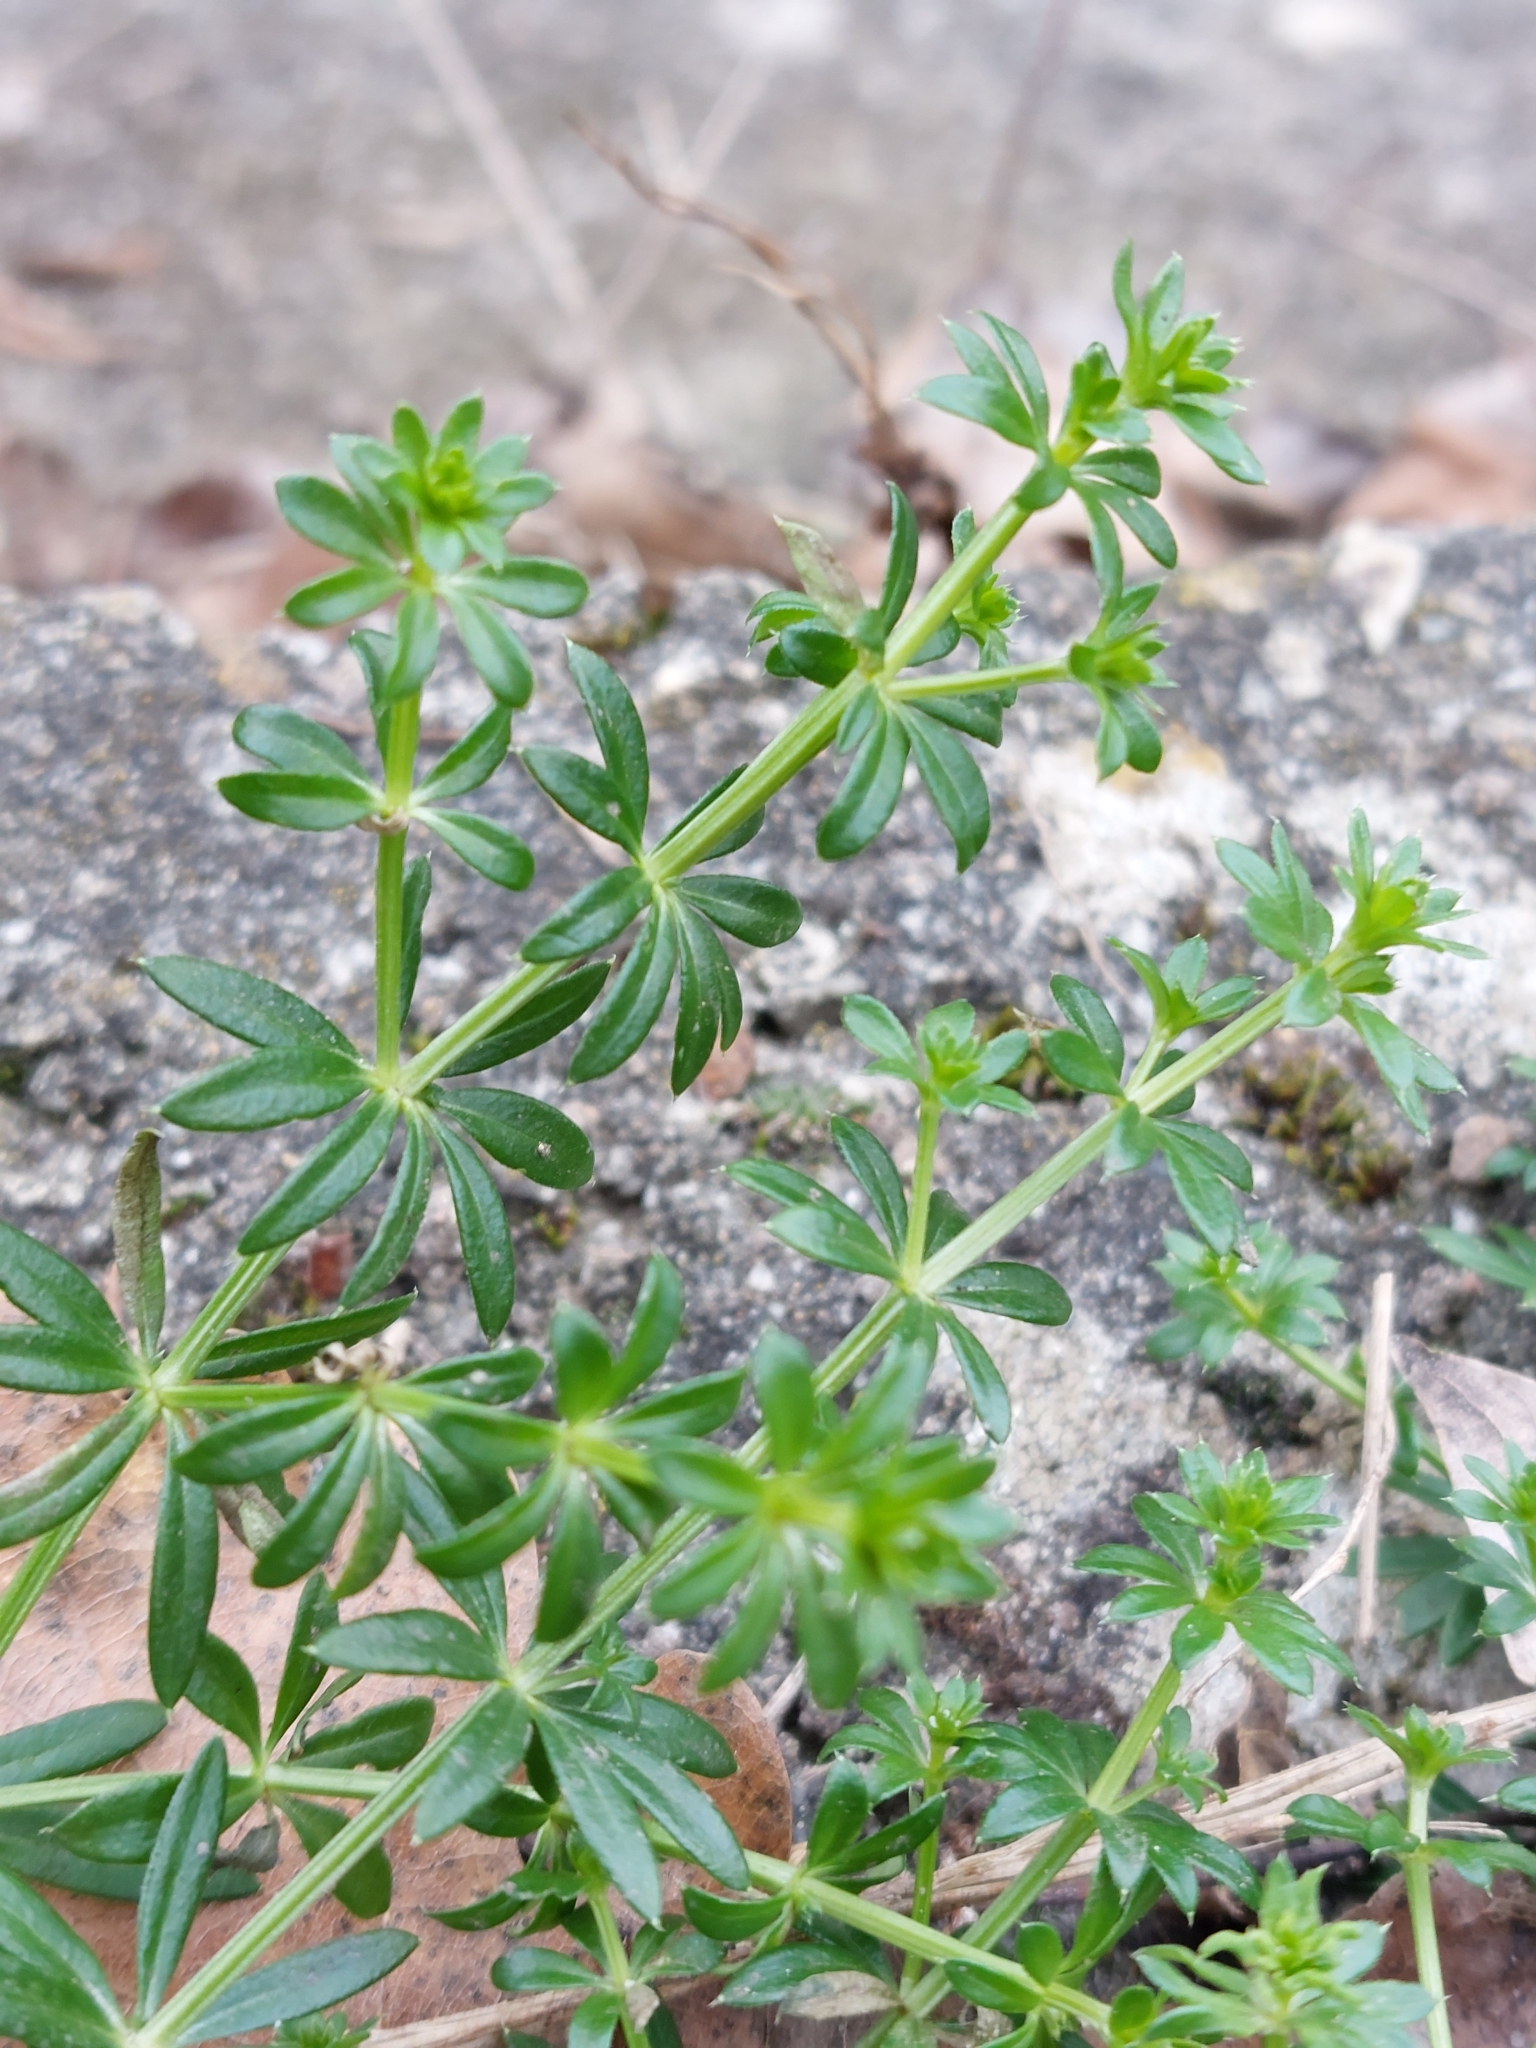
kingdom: Plantae
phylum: Tracheophyta
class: Magnoliopsida
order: Gentianales
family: Rubiaceae
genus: Galium
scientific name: Galium album
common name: White bedstraw
